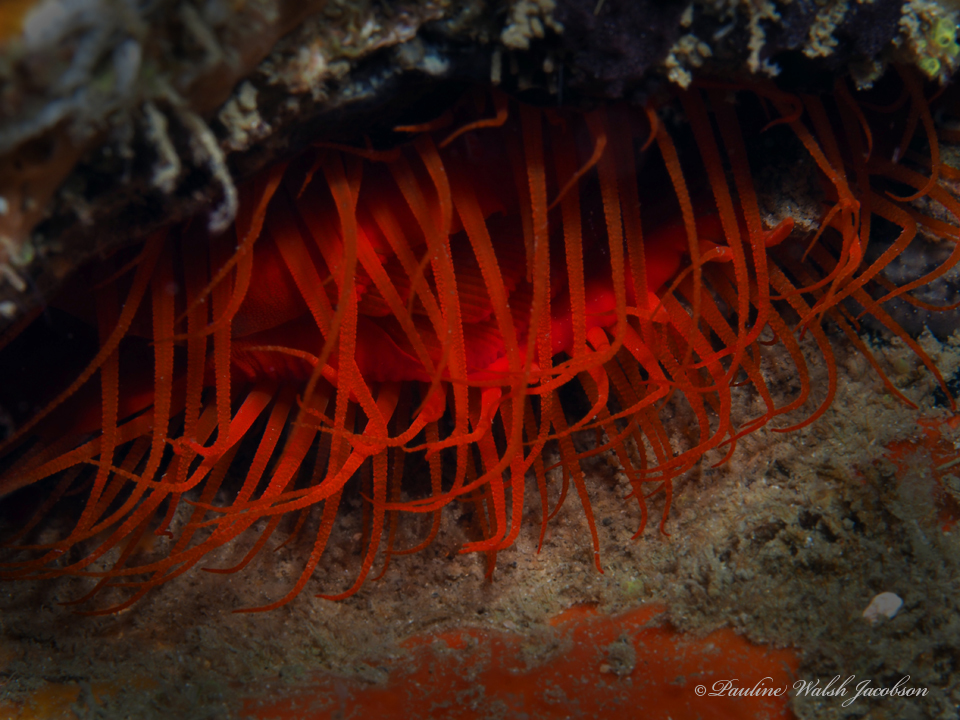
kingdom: Animalia
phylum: Mollusca
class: Bivalvia
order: Limida
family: Limidae
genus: Ctenoides
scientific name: Ctenoides scaber
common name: Rough fileclam
